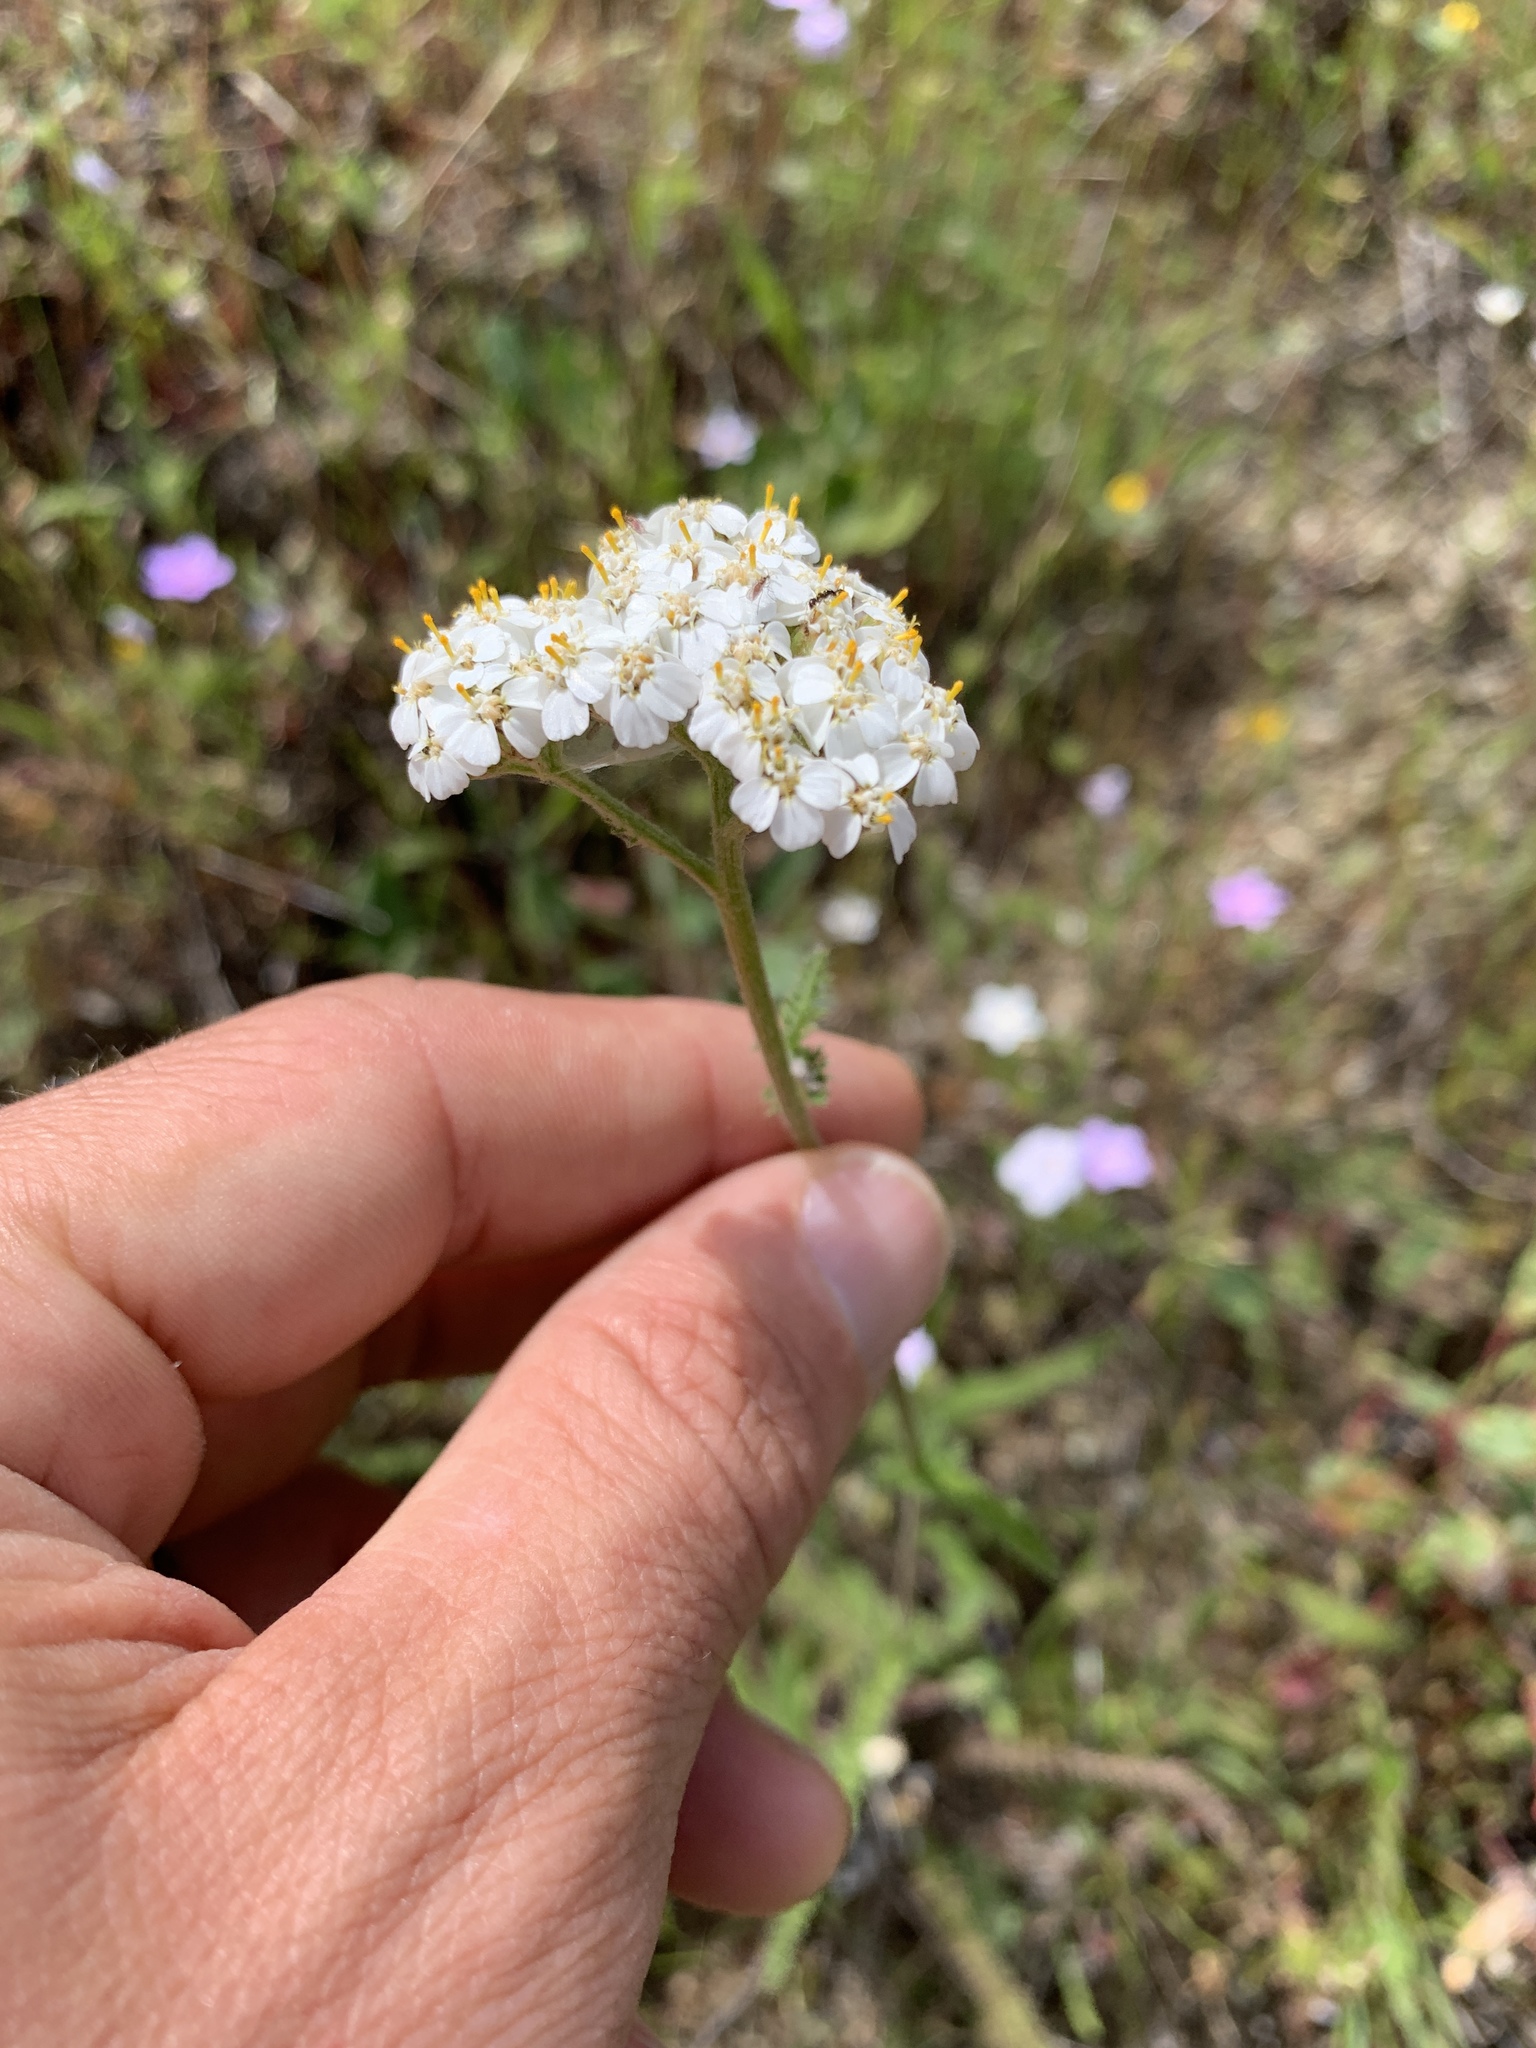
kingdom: Plantae
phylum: Tracheophyta
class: Magnoliopsida
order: Asterales
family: Asteraceae
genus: Achillea
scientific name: Achillea millefolium
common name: Yarrow
